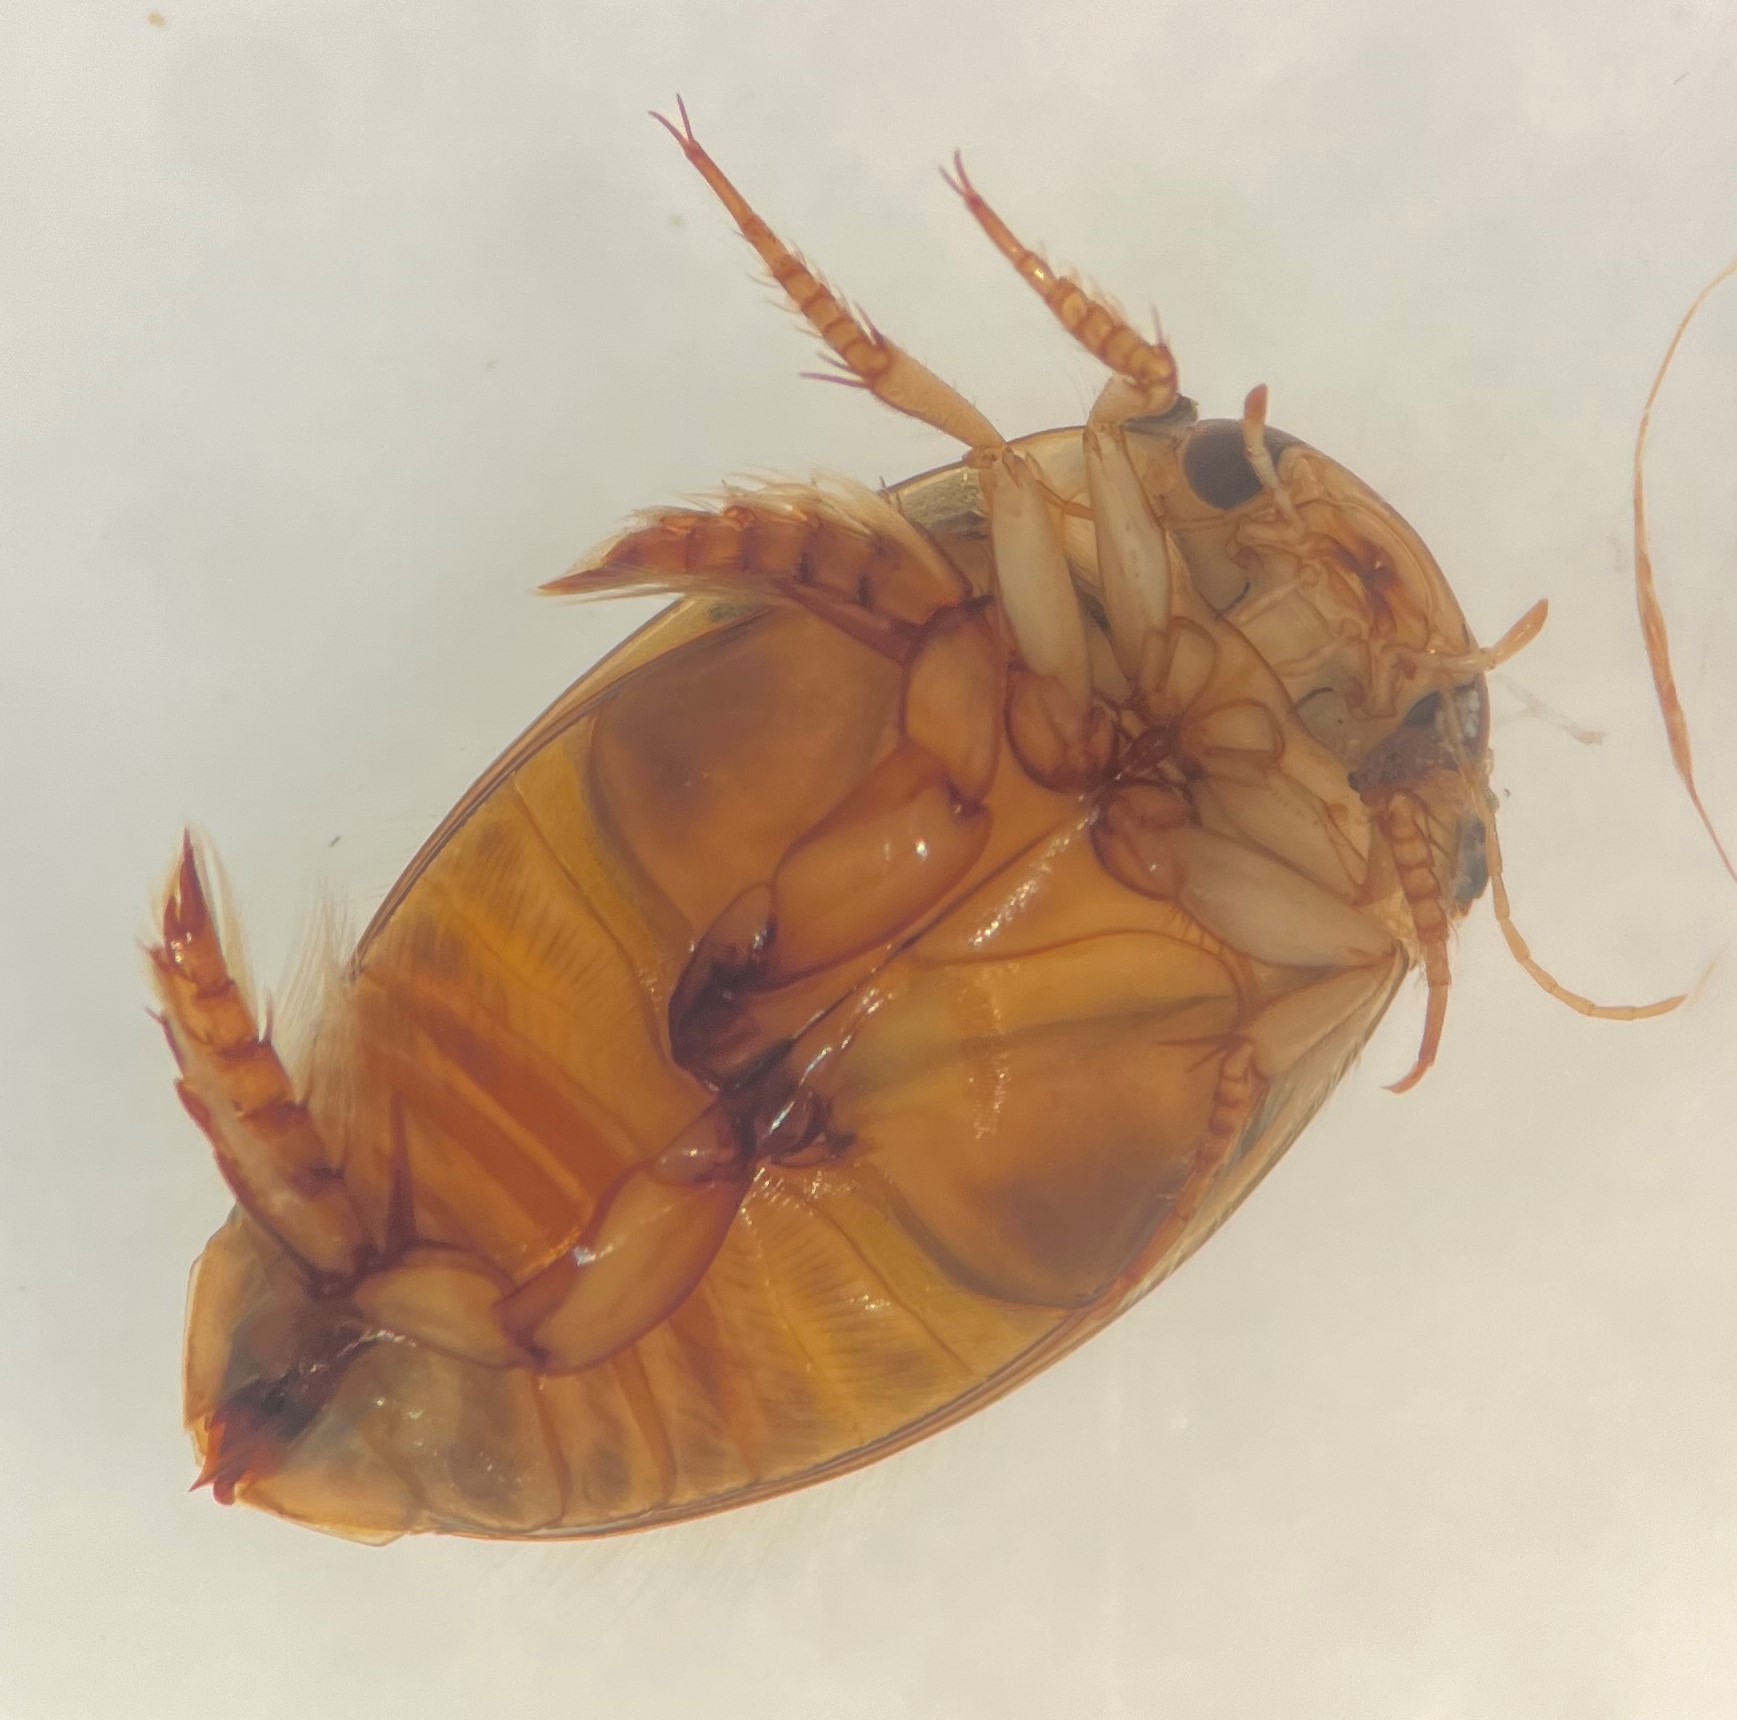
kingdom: Animalia
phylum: Arthropoda
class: Insecta
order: Coleoptera
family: Dytiscidae
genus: Laccophilus
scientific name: Laccophilus maculosus
